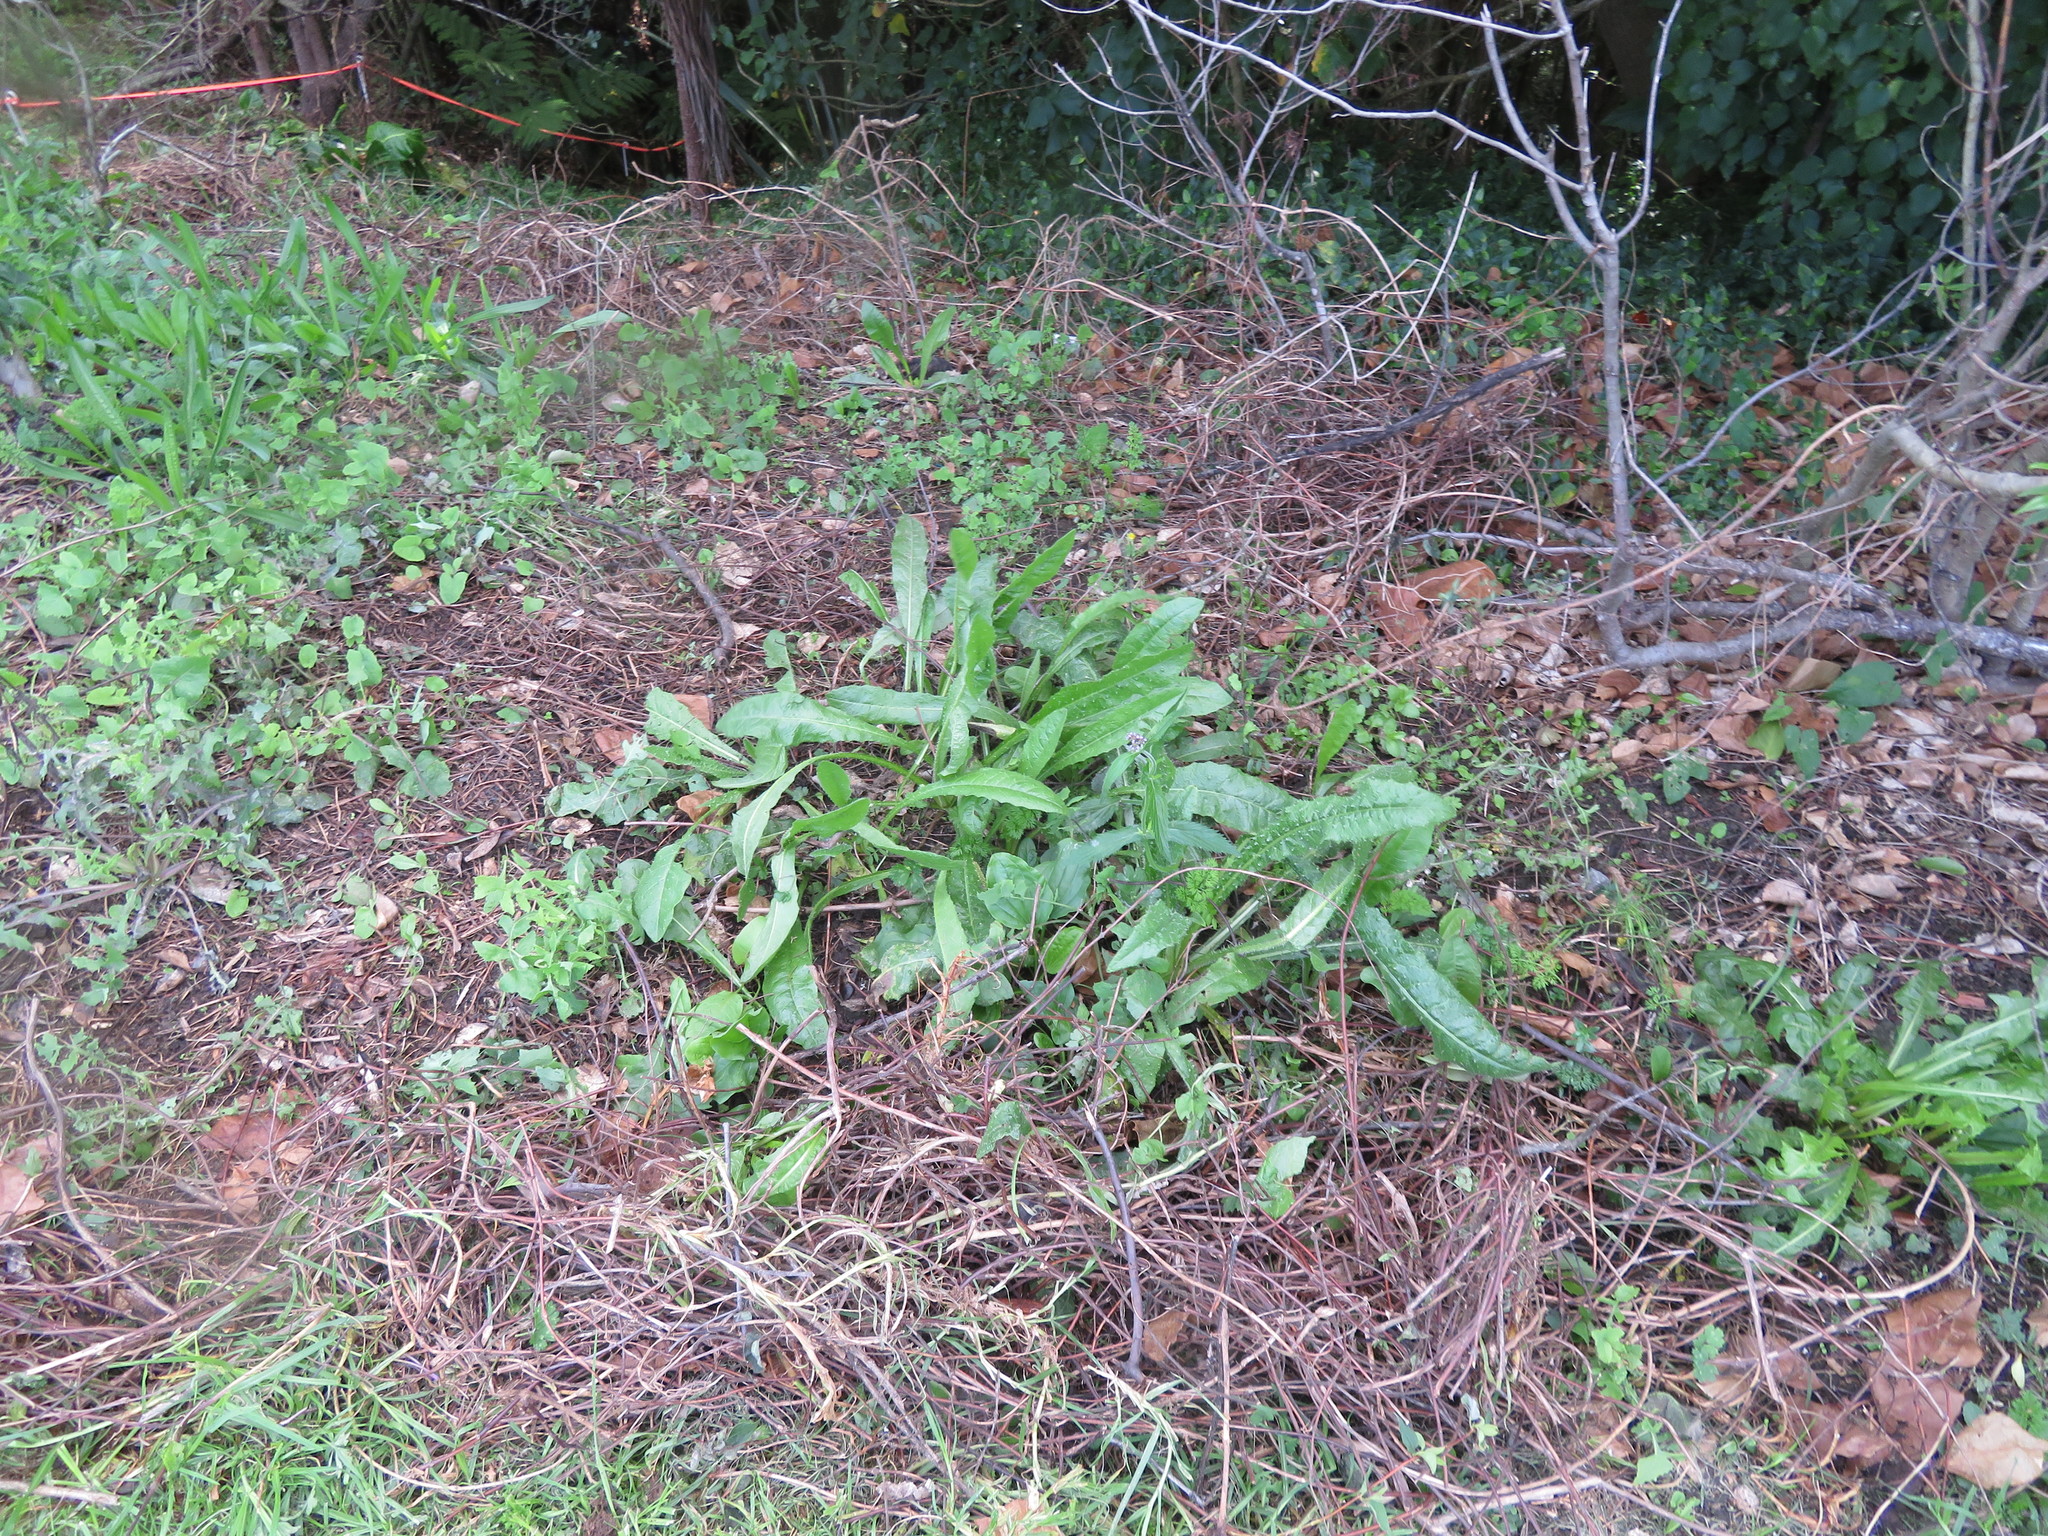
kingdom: Plantae
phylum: Tracheophyta
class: Magnoliopsida
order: Asterales
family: Asteraceae
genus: Helminthotheca
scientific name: Helminthotheca echioides
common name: Ox-tongue
